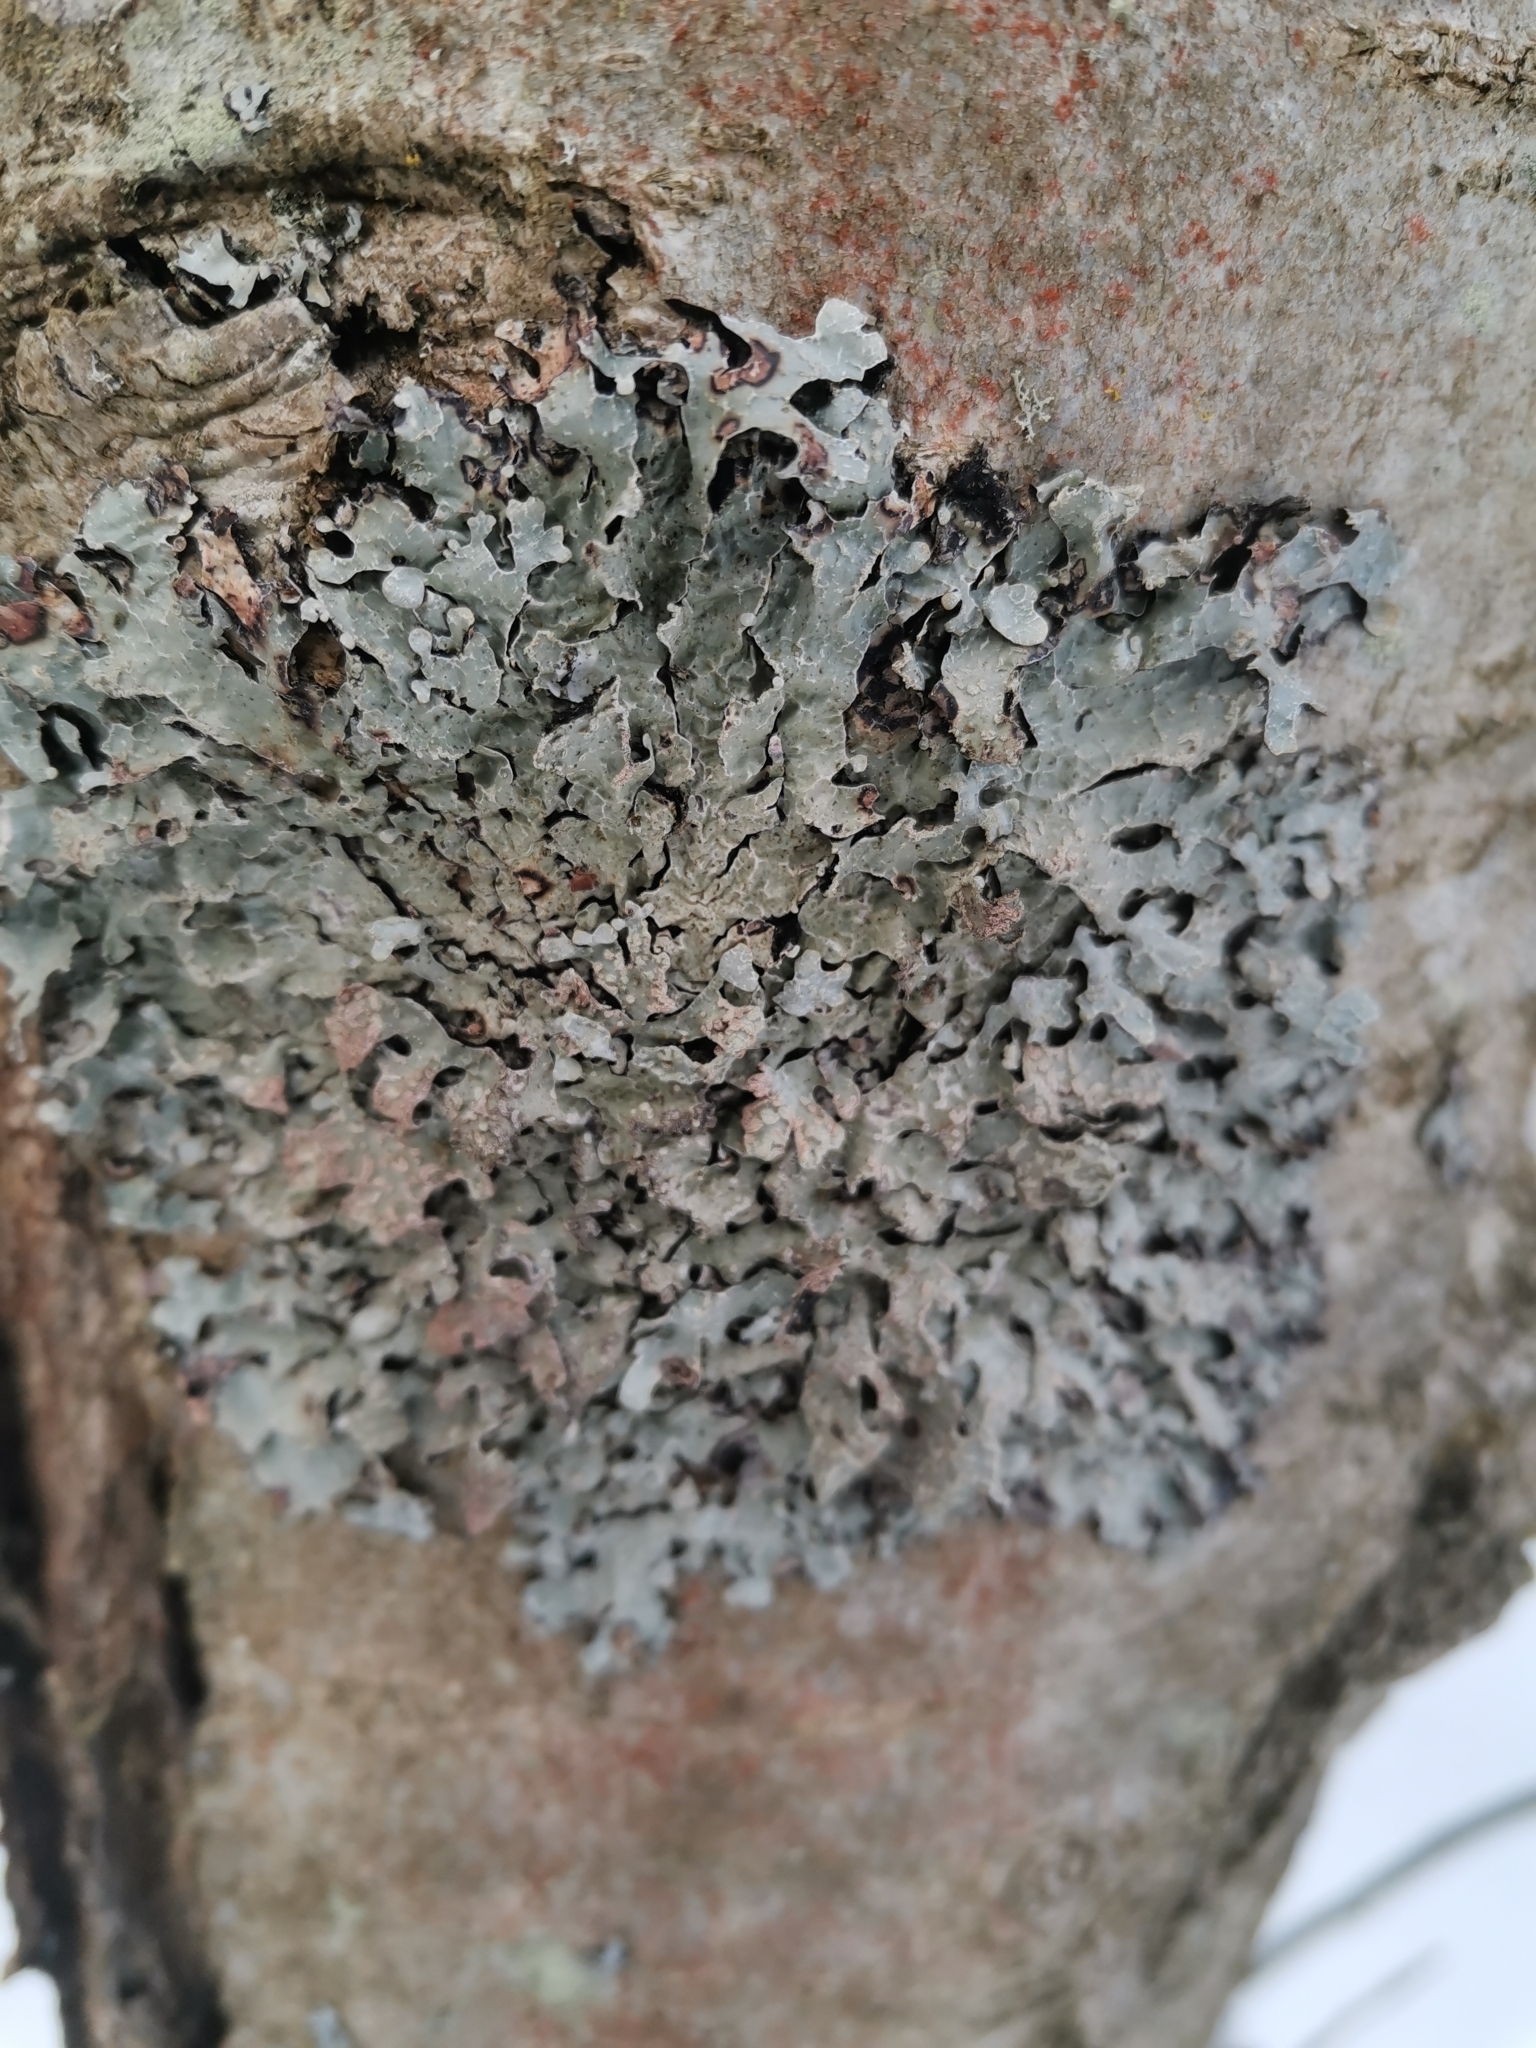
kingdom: Fungi
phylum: Ascomycota
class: Lecanoromycetes
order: Lecanorales
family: Parmeliaceae
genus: Parmelia
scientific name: Parmelia sulcata
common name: Netted shield lichen
